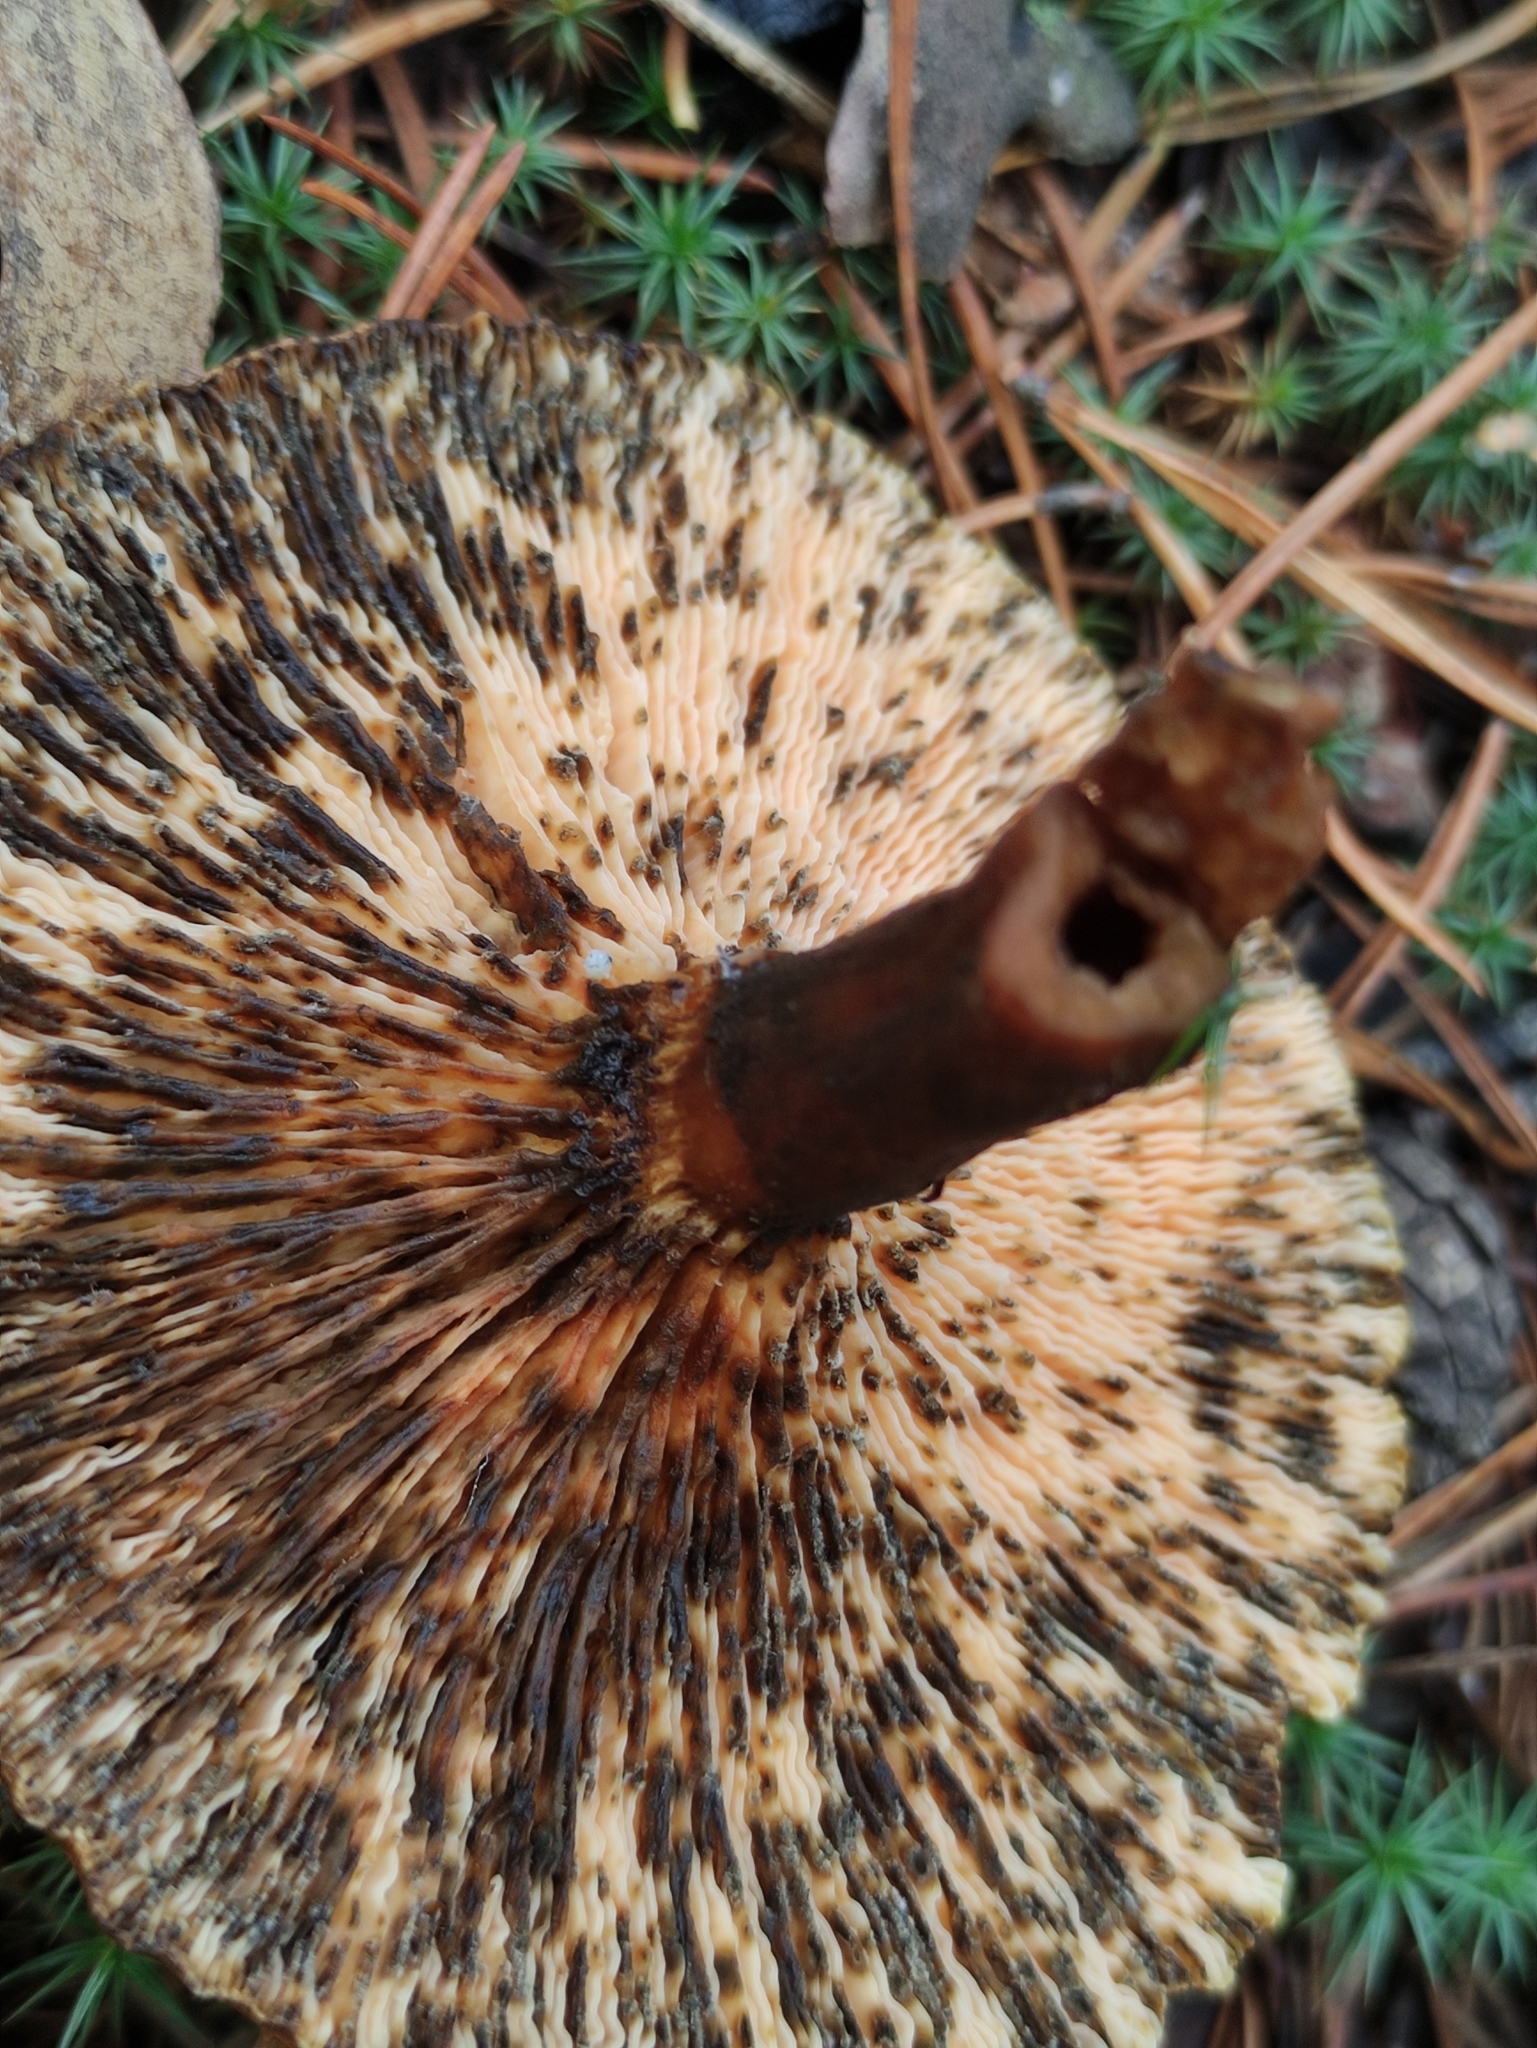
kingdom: Fungi
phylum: Basidiomycota
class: Agaricomycetes
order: Boletales
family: Hygrophoropsidaceae
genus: Hygrophoropsis
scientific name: Hygrophoropsis aurantiaca
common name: False chanterelle
